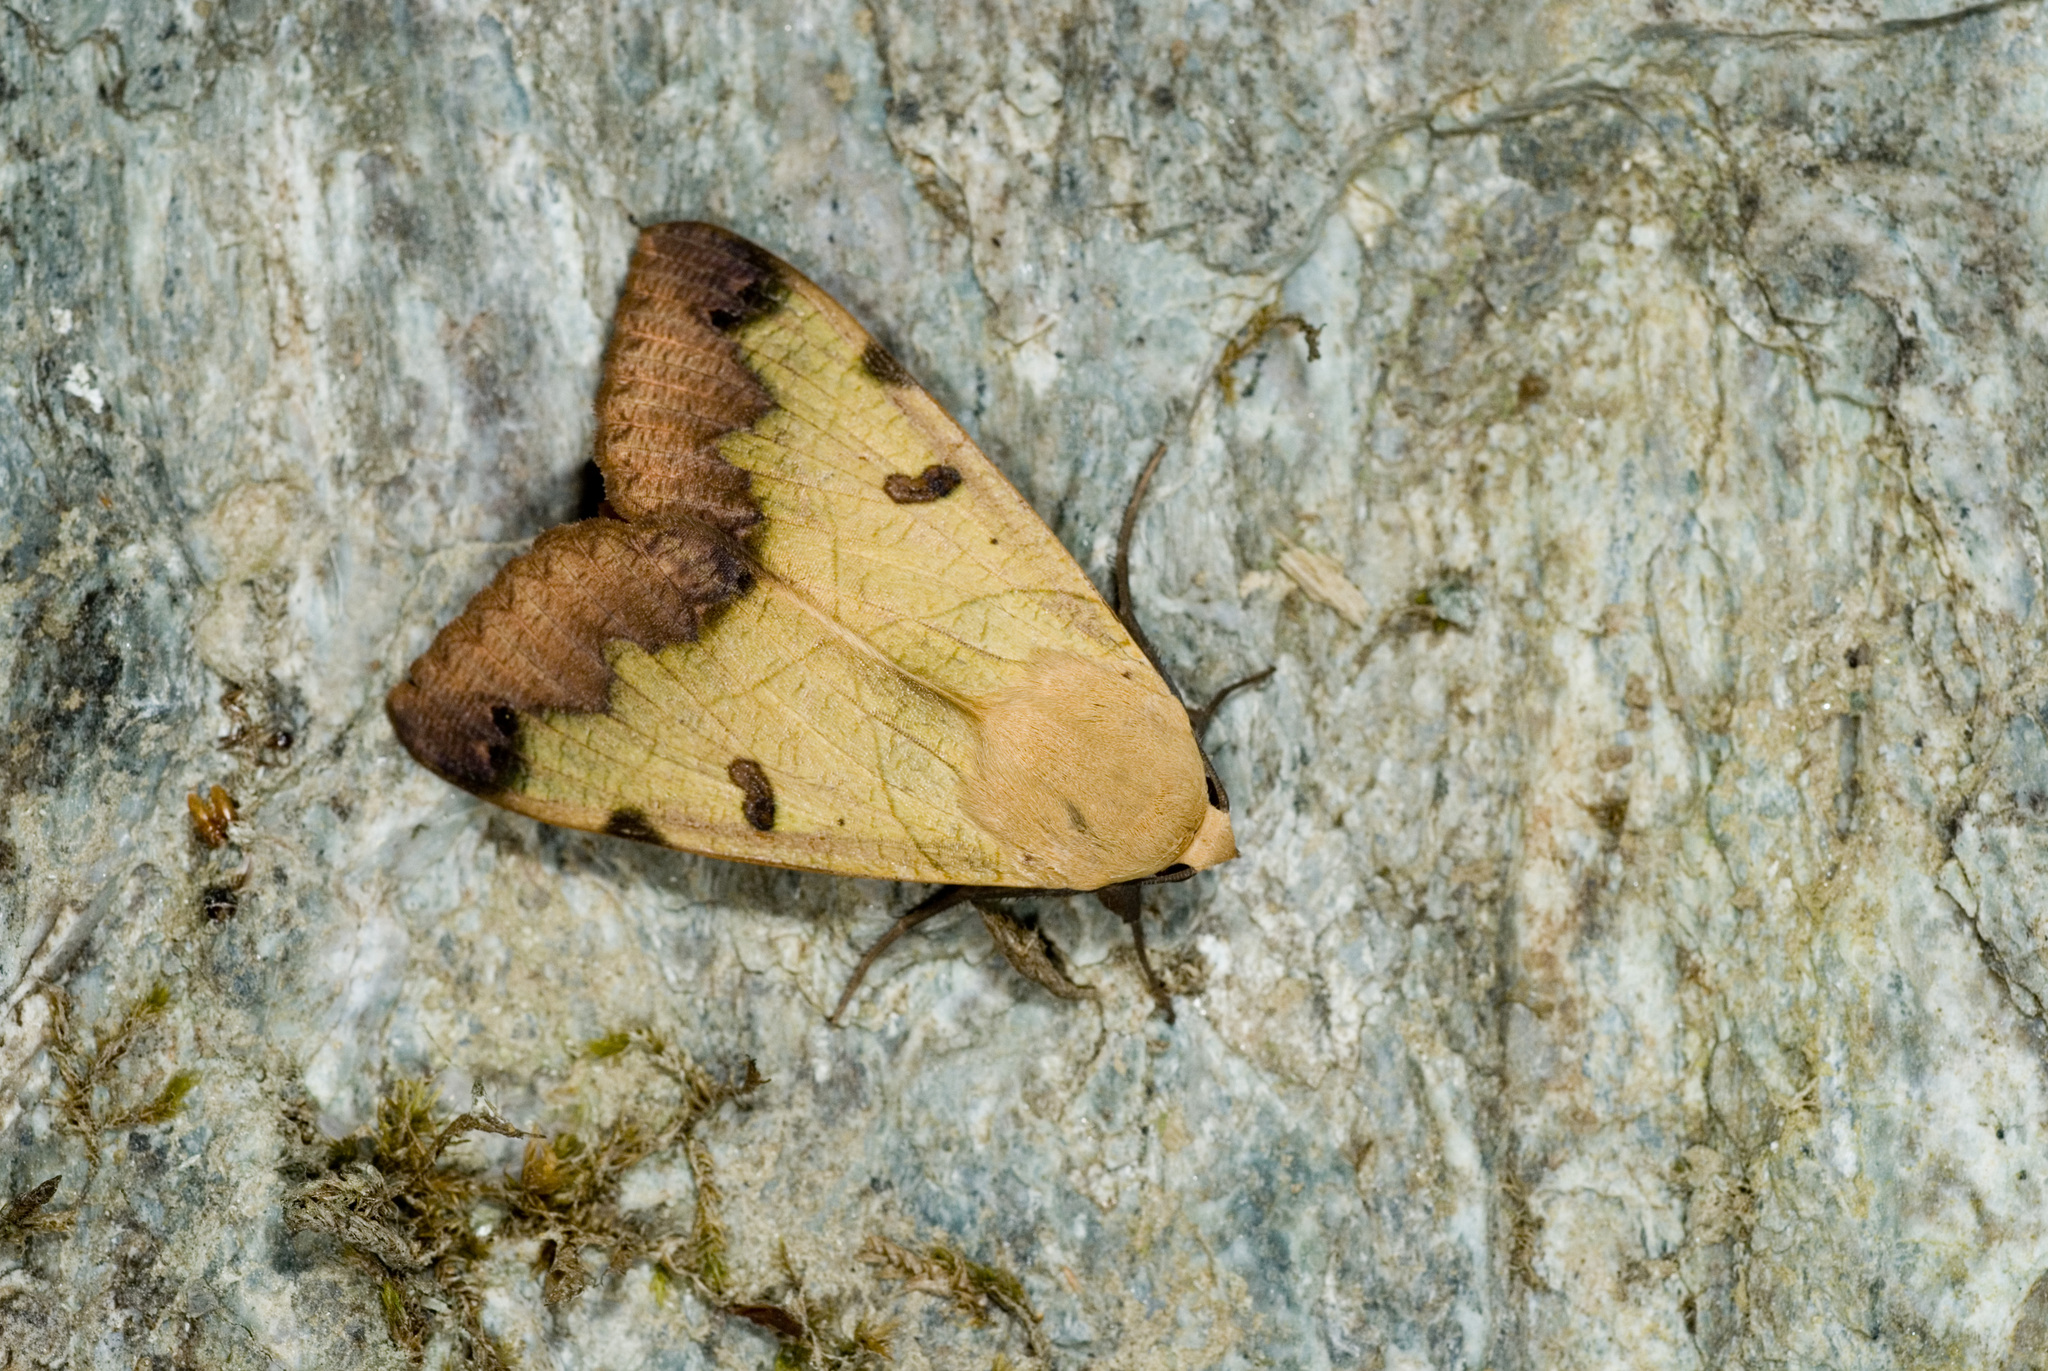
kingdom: Animalia
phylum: Arthropoda
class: Insecta
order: Lepidoptera
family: Erebidae
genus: Ophiusa
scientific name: Ophiusa tirhaca
